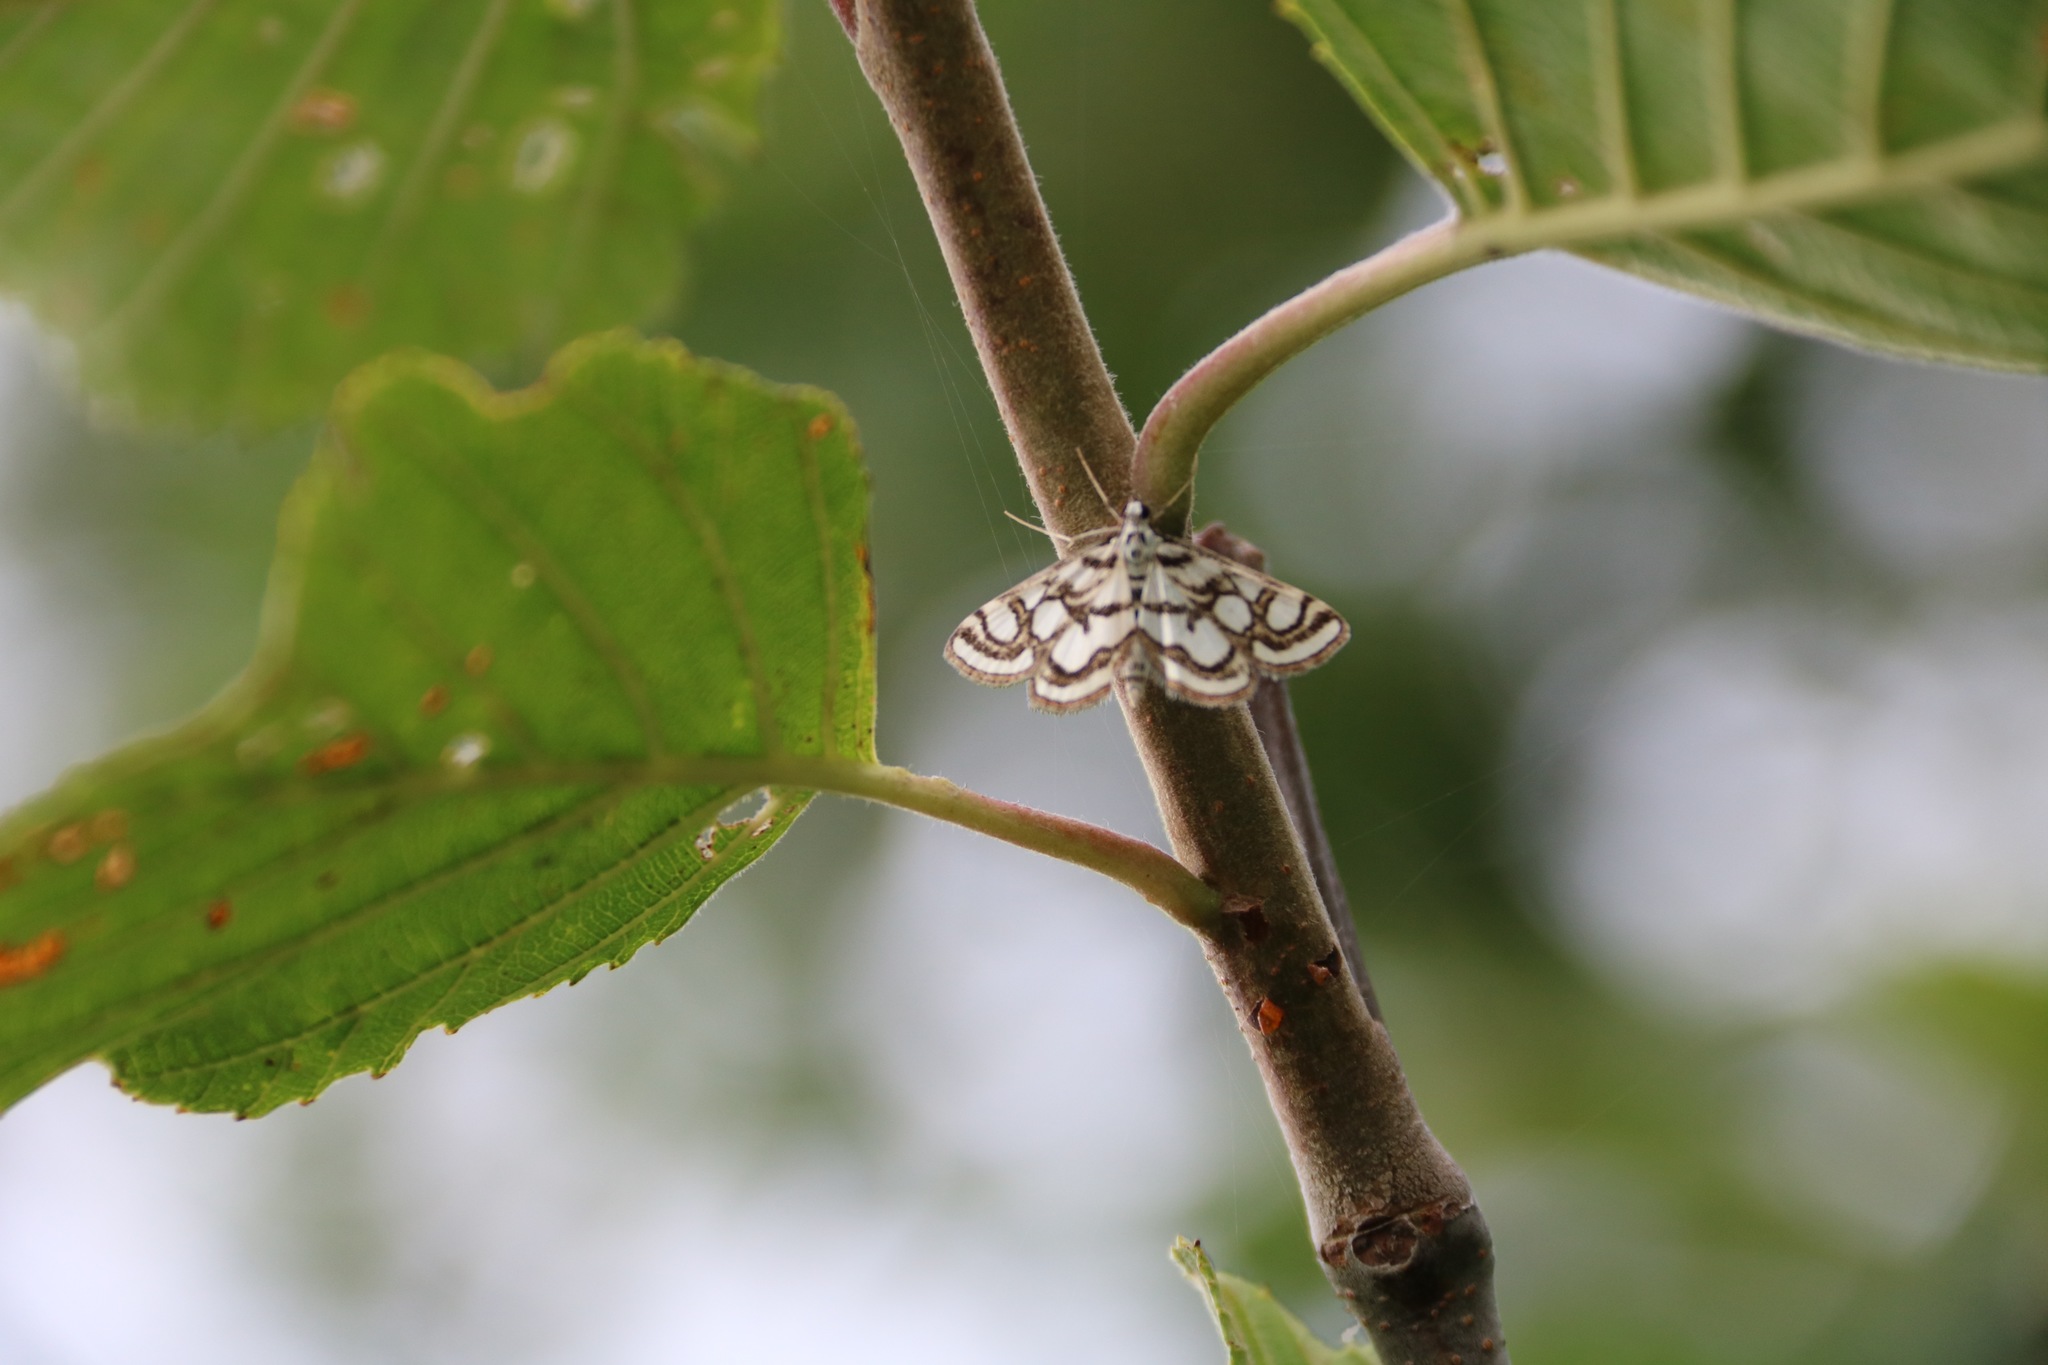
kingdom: Animalia
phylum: Arthropoda
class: Insecta
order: Lepidoptera
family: Crambidae
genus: Nymphula
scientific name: Nymphula nitidulata
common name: Beautiful china mark
